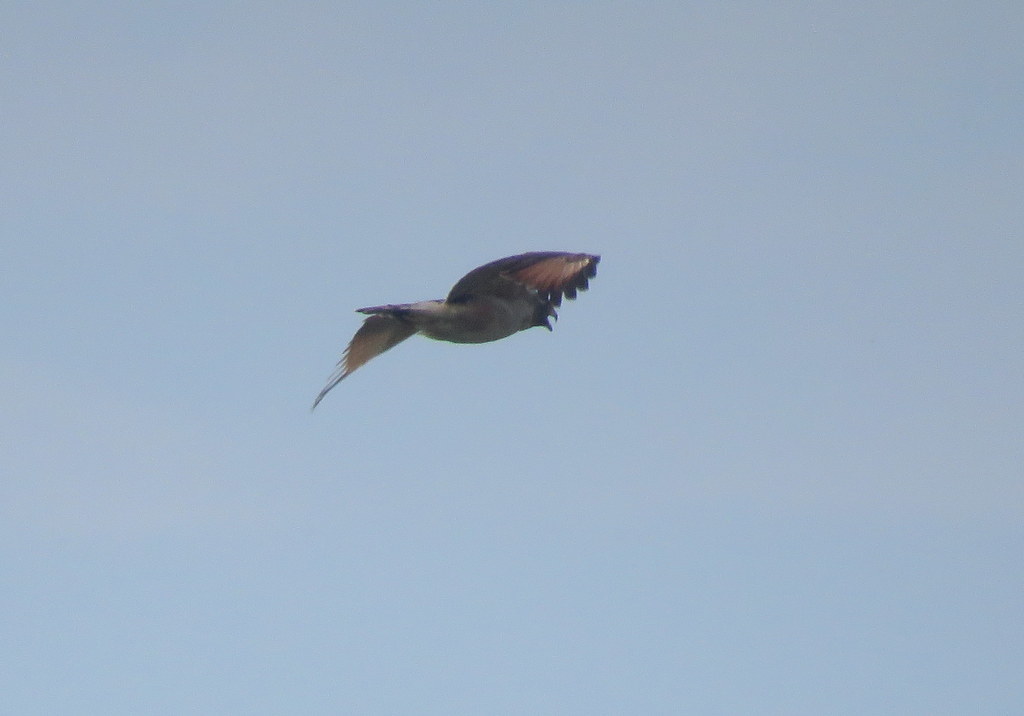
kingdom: Animalia
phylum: Chordata
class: Aves
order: Accipitriformes
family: Accipitridae
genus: Rupornis
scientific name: Rupornis magnirostris
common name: Roadside hawk
